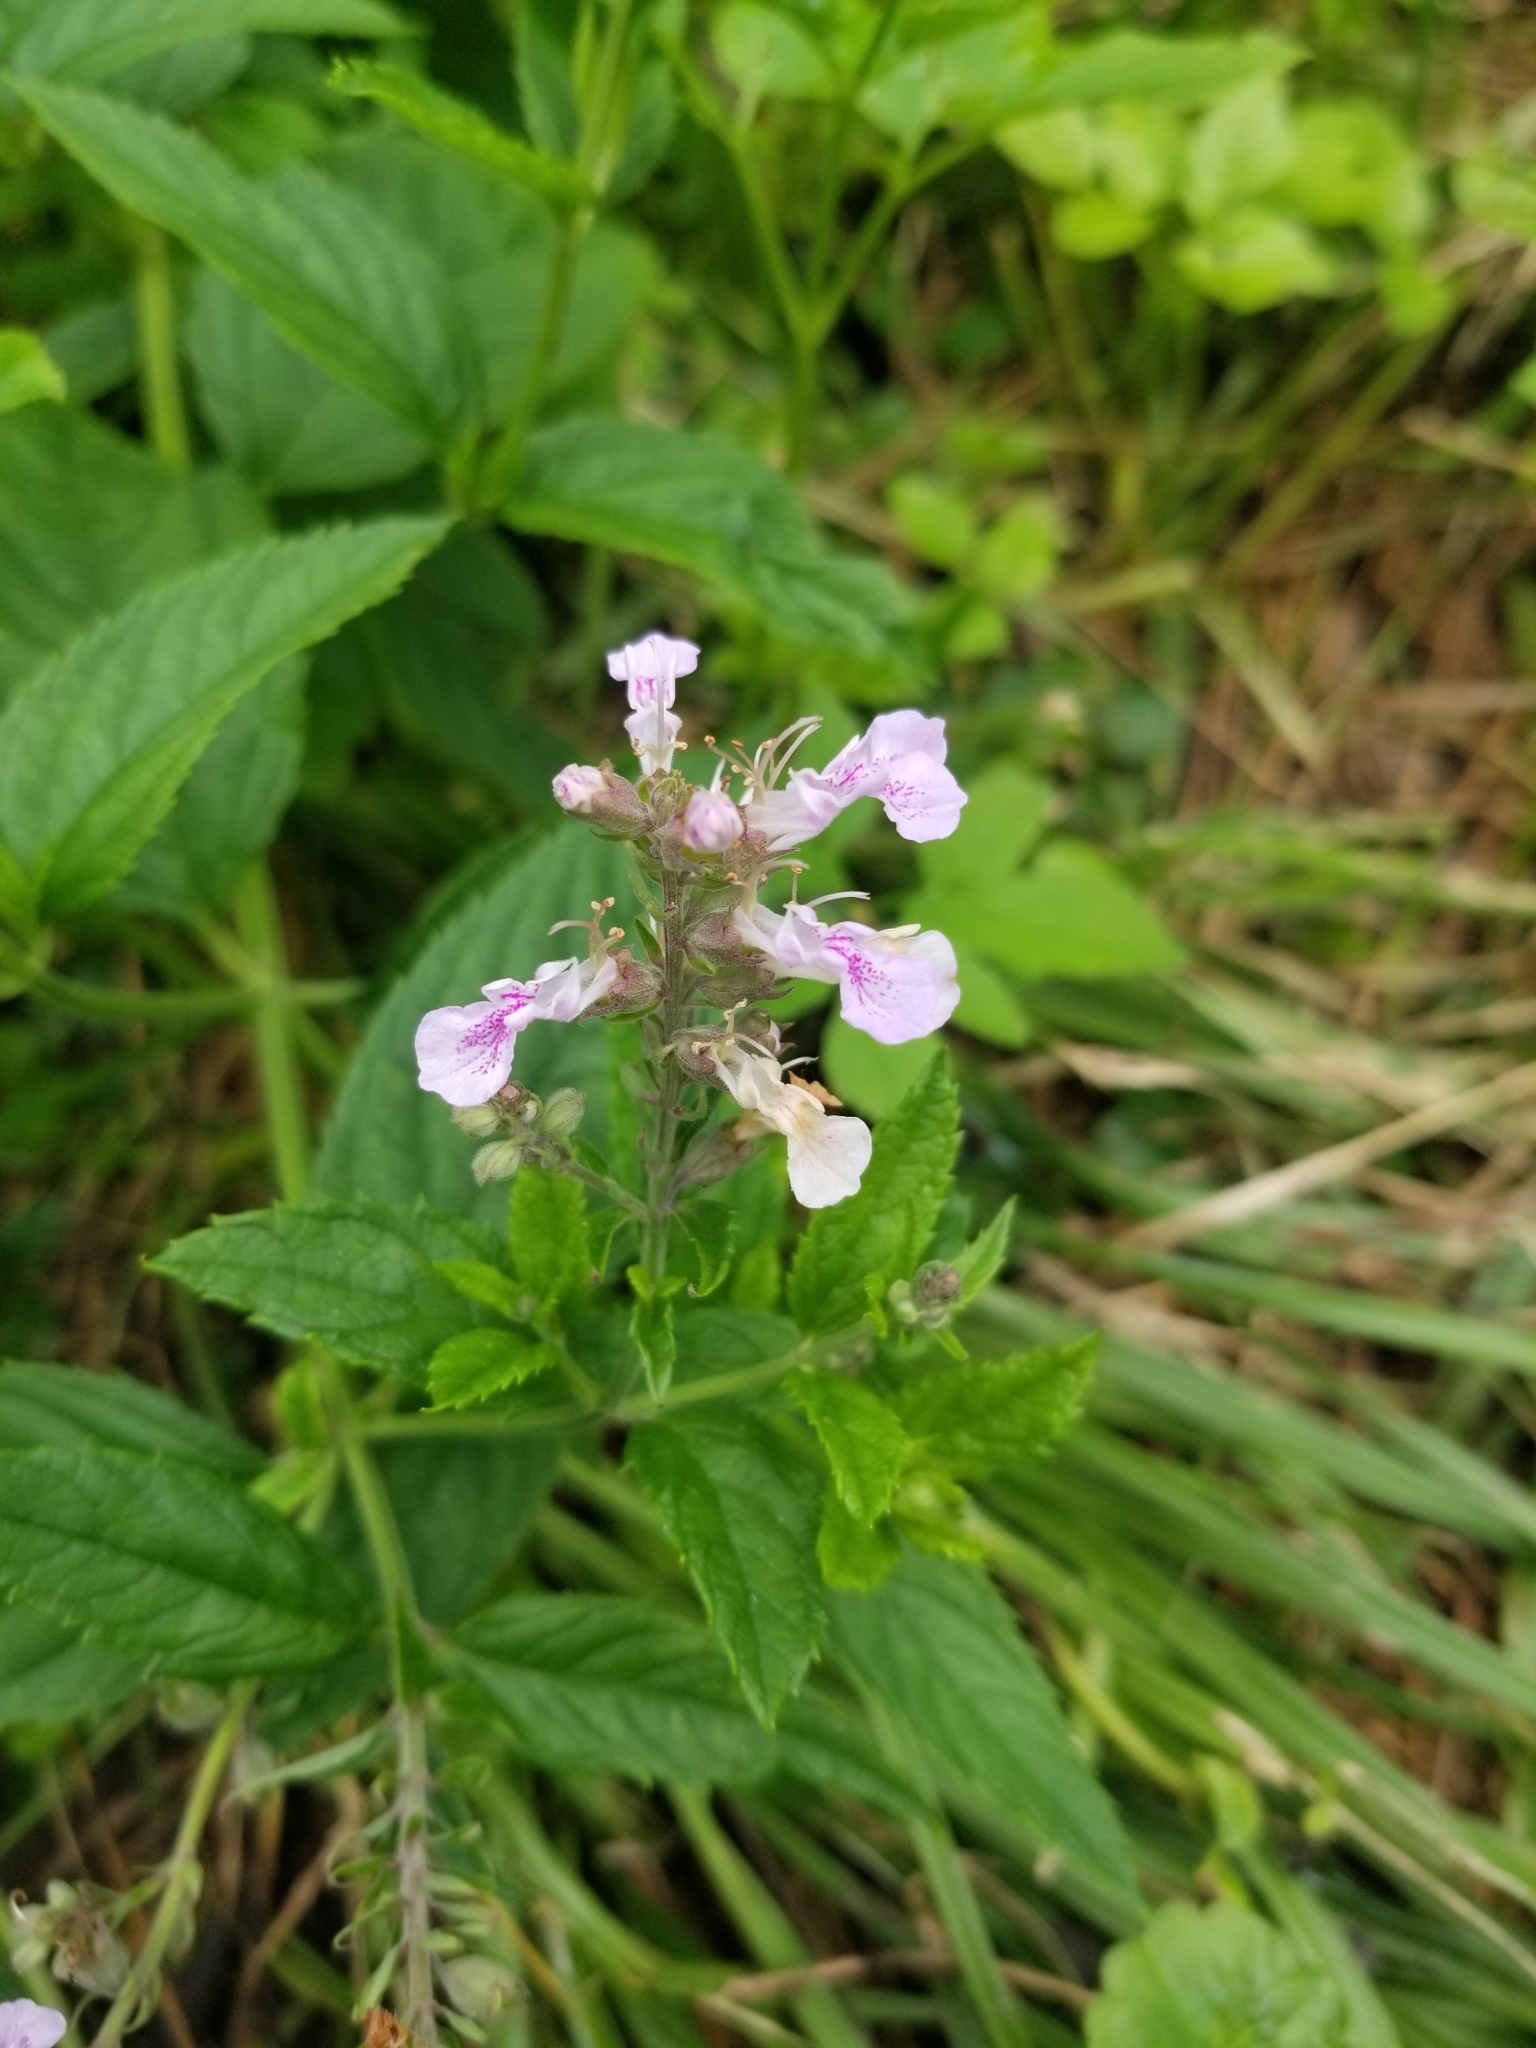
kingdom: Plantae
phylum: Tracheophyta
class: Magnoliopsida
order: Lamiales
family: Lamiaceae
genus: Teucrium
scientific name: Teucrium canadense
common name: American germander
